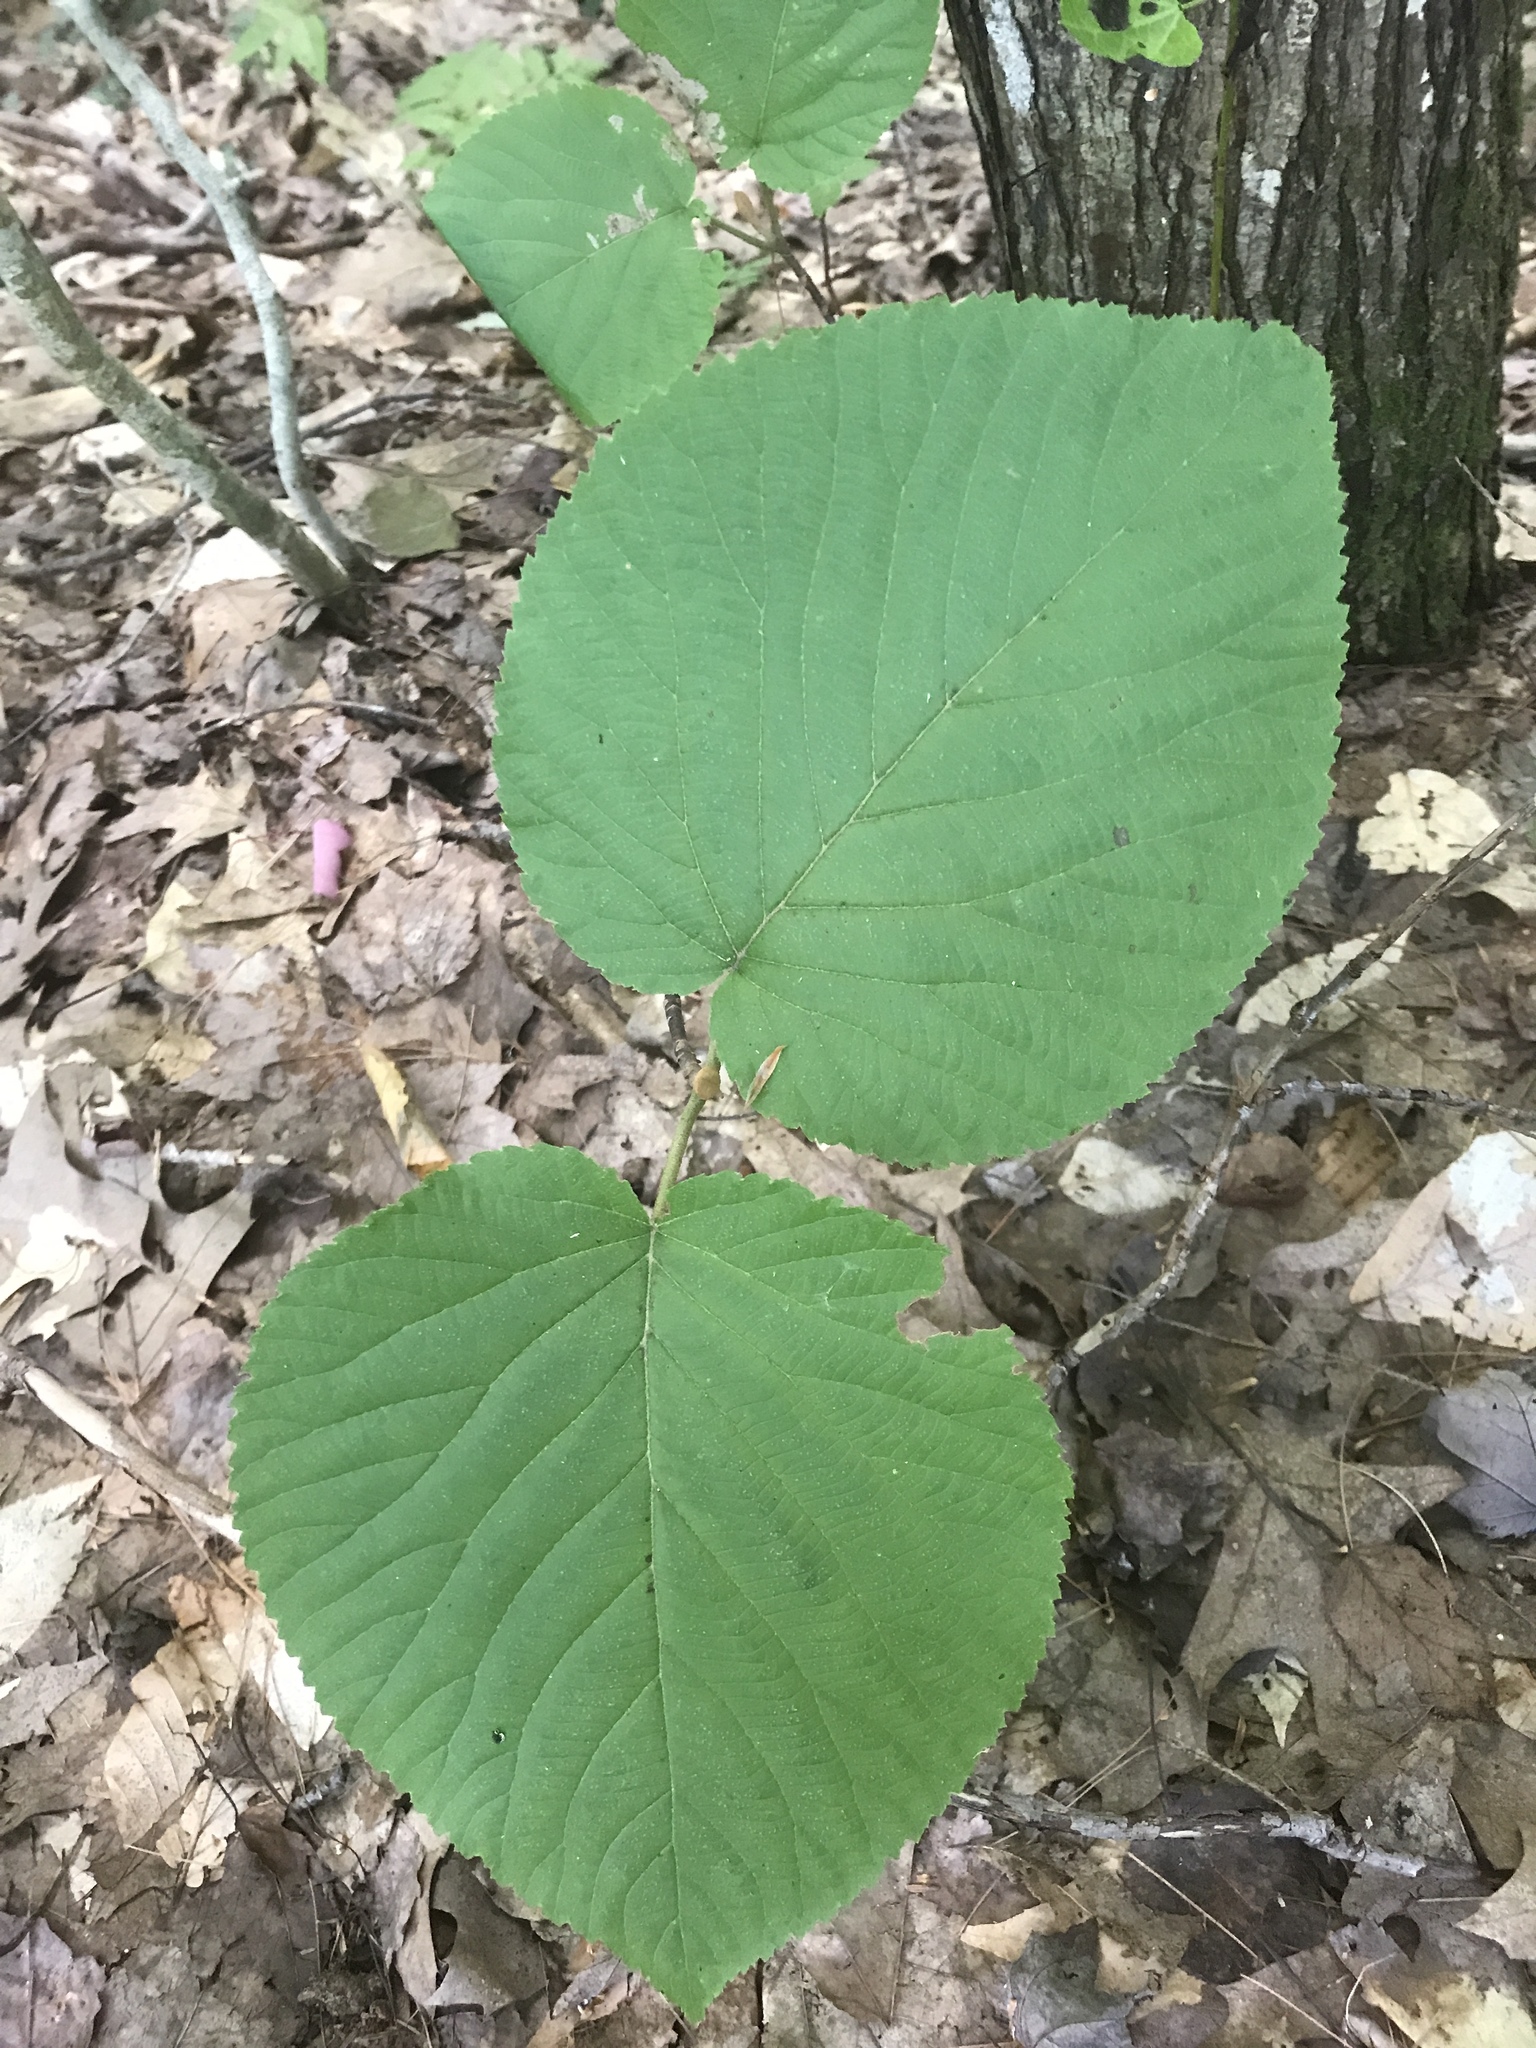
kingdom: Plantae
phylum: Tracheophyta
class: Magnoliopsida
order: Dipsacales
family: Viburnaceae
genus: Viburnum
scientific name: Viburnum lantanoides
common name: Hobblebush
